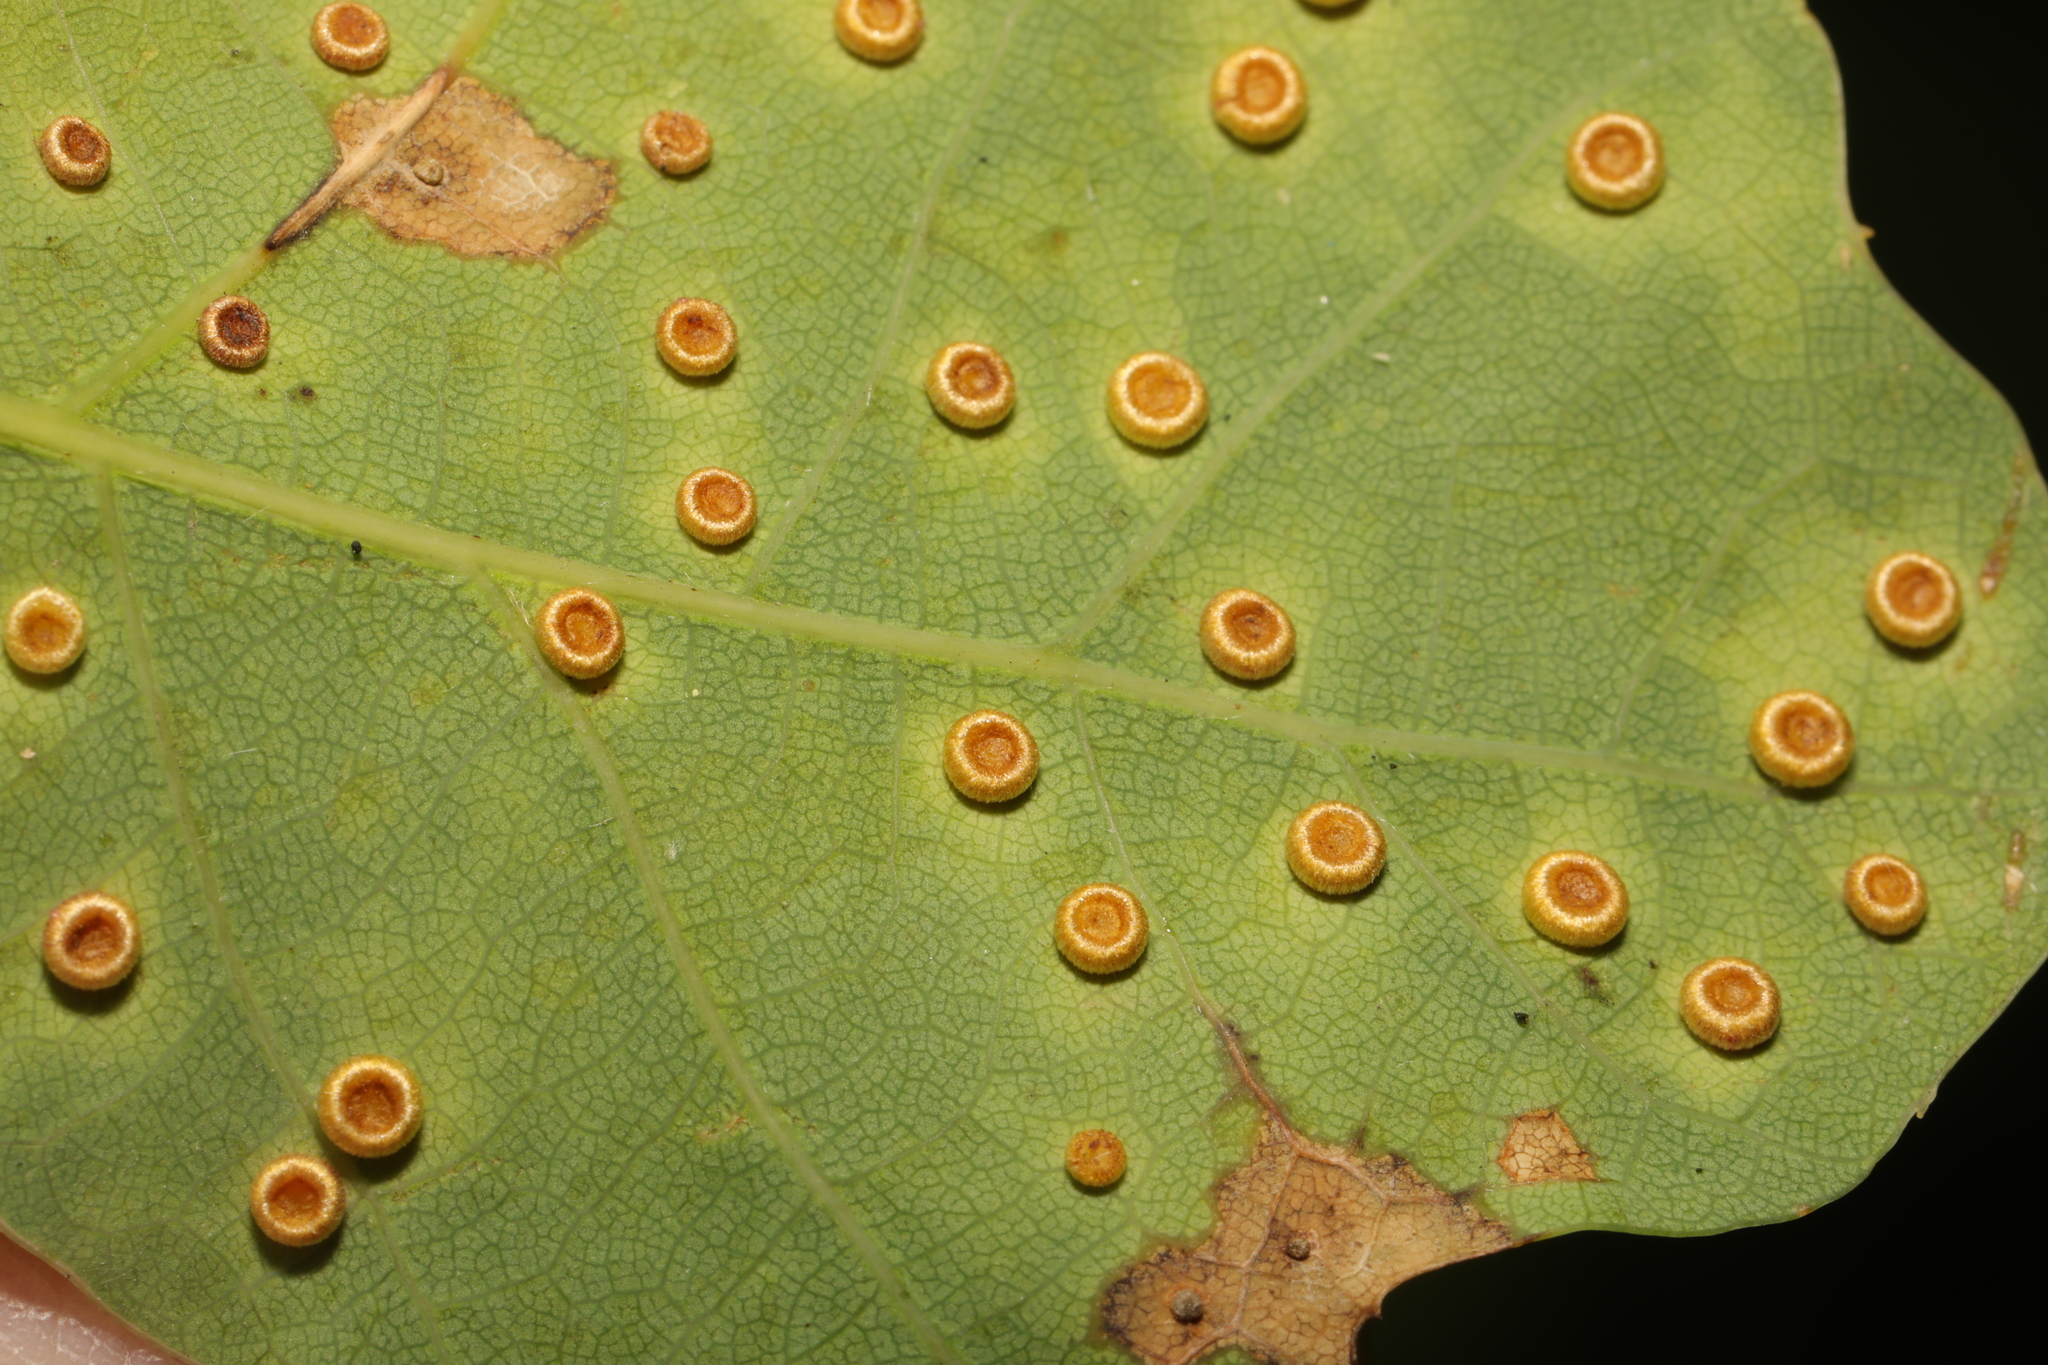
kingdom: Animalia
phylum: Arthropoda
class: Insecta
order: Hymenoptera
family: Cynipidae
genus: Neuroterus
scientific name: Neuroterus numismalis
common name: Silk-button spangle gall
